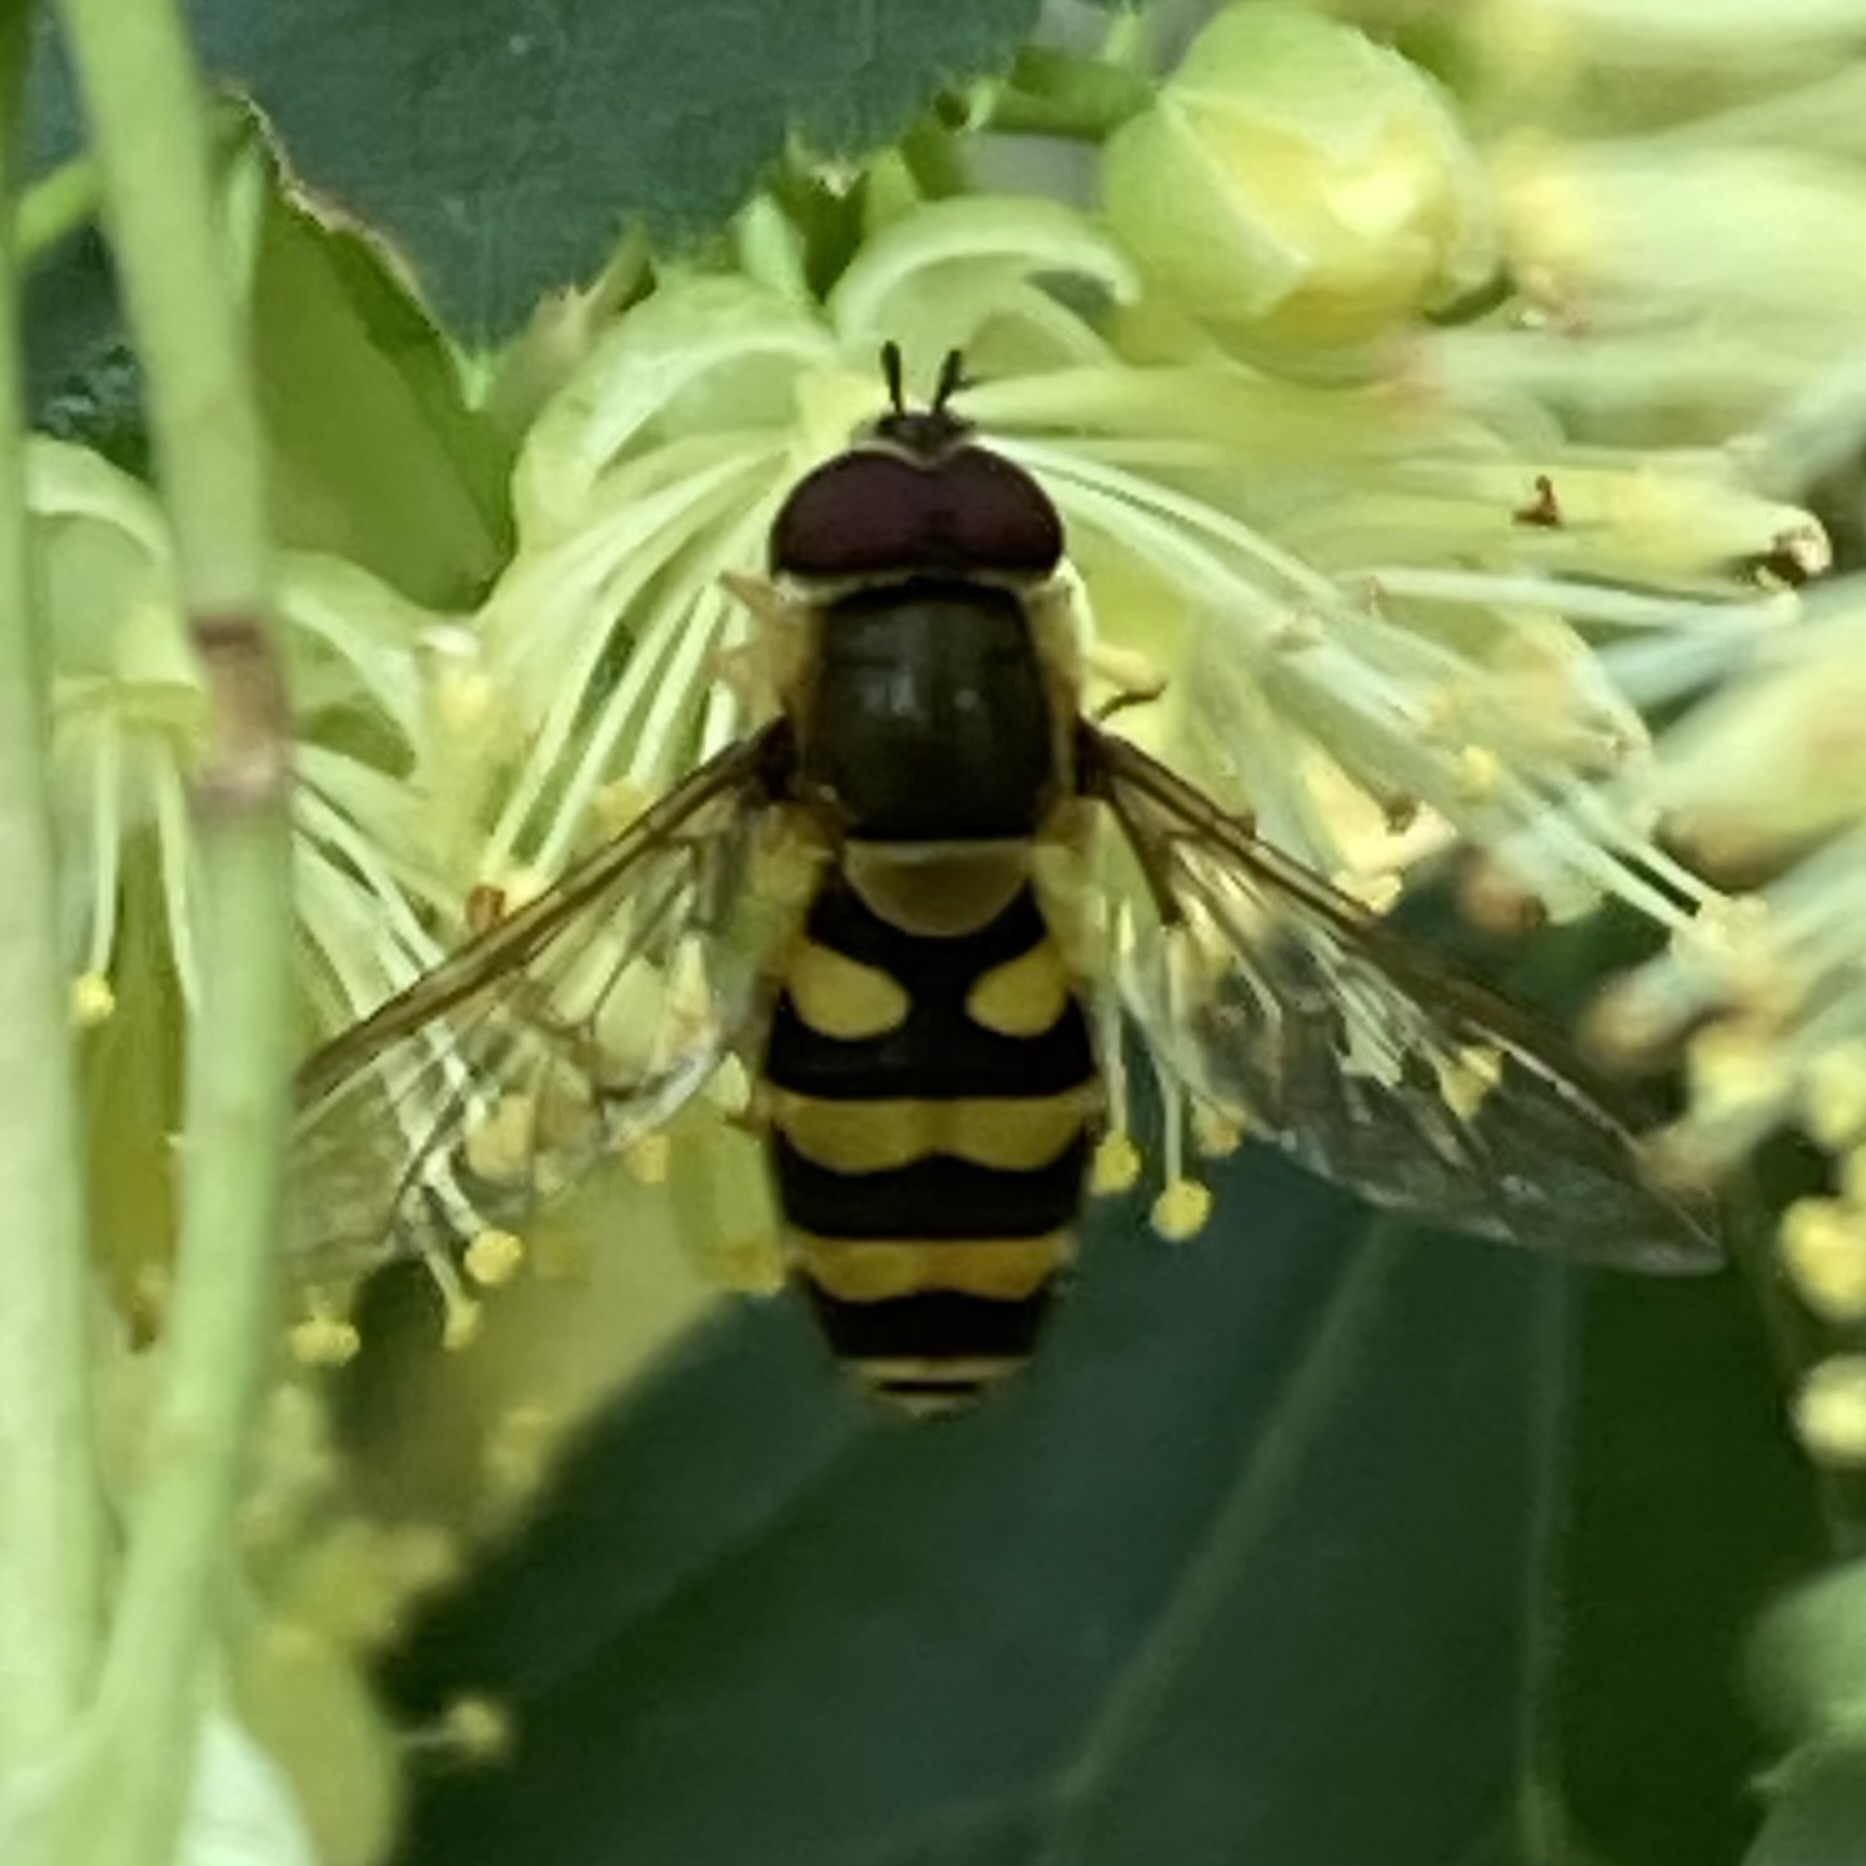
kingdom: Animalia
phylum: Arthropoda
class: Insecta
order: Diptera
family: Syrphidae
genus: Syrphus
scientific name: Syrphus
